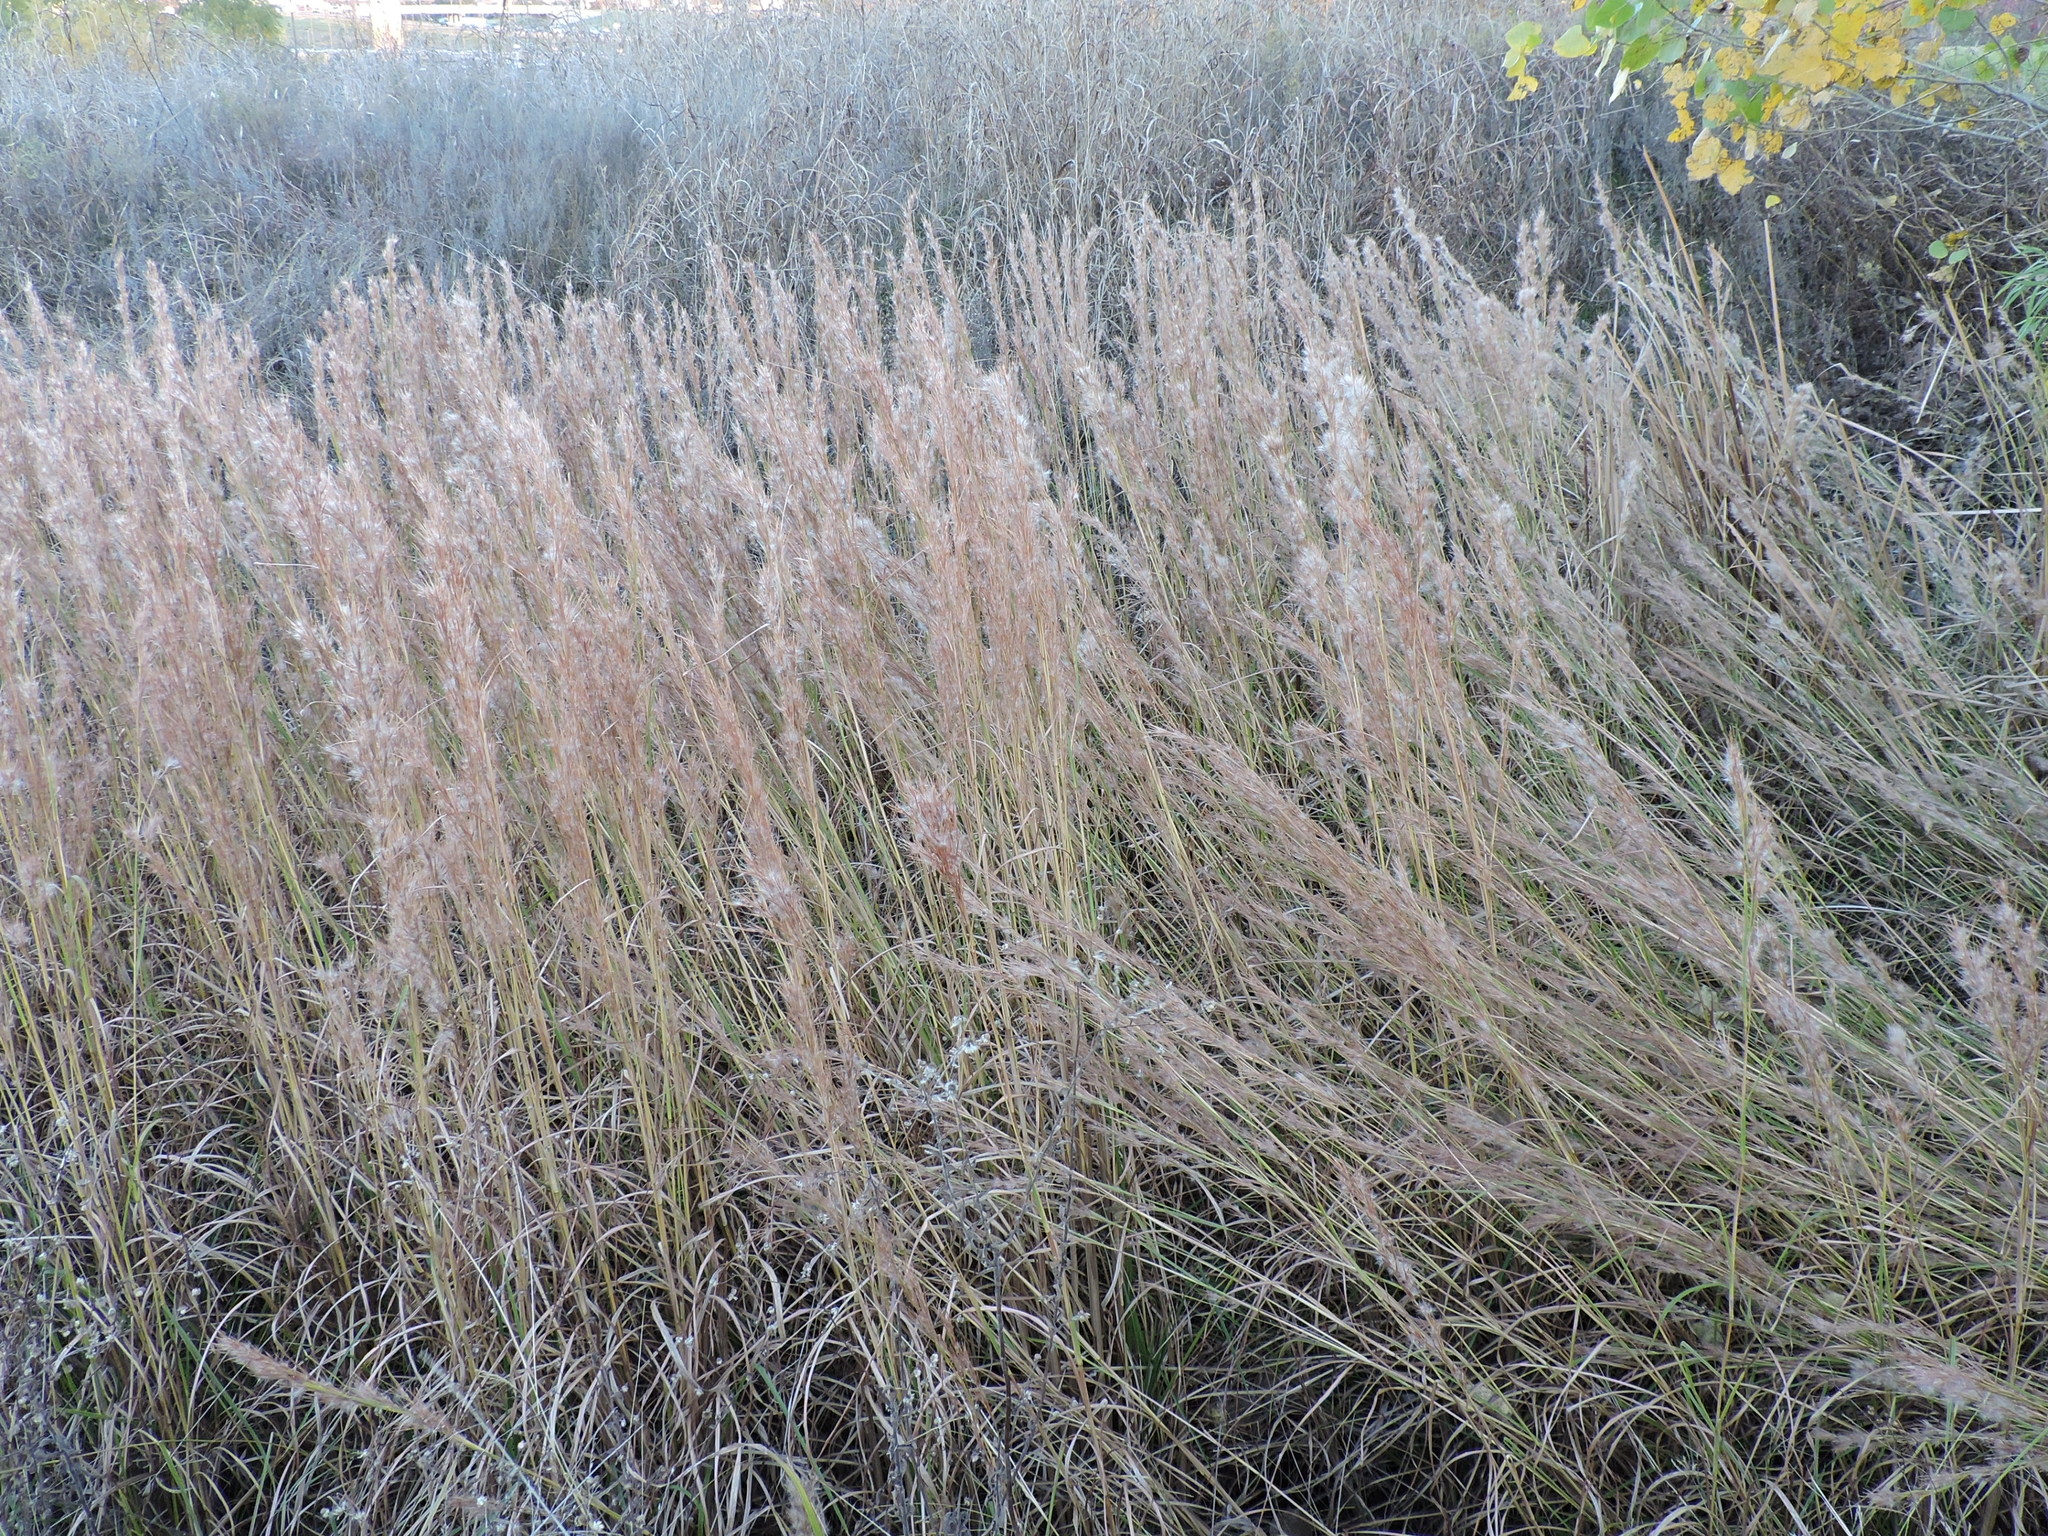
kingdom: Plantae
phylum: Tracheophyta
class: Liliopsida
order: Poales
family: Poaceae
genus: Andropogon
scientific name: Andropogon tenuispatheus
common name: Bushy bluestem
